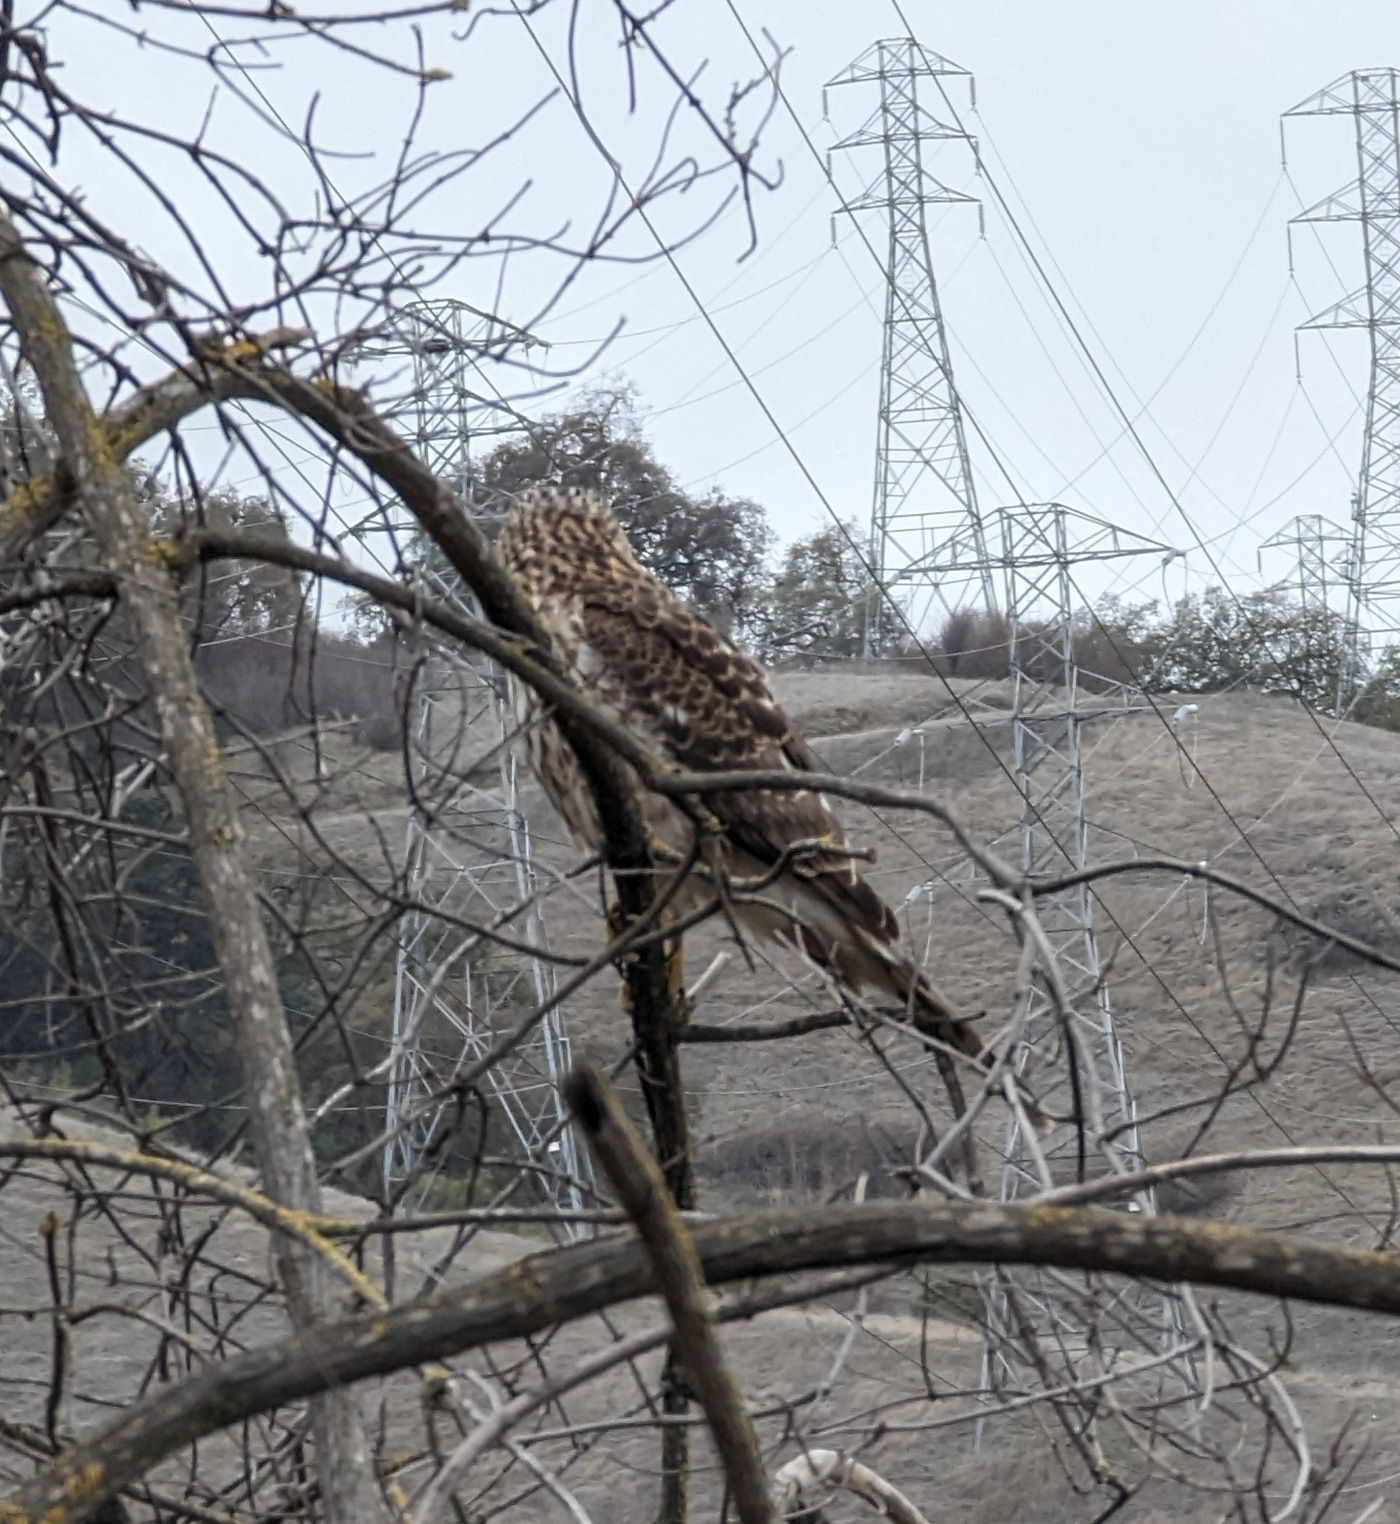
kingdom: Animalia
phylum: Chordata
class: Aves
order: Accipitriformes
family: Accipitridae
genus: Accipiter
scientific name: Accipiter cooperii
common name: Cooper's hawk
